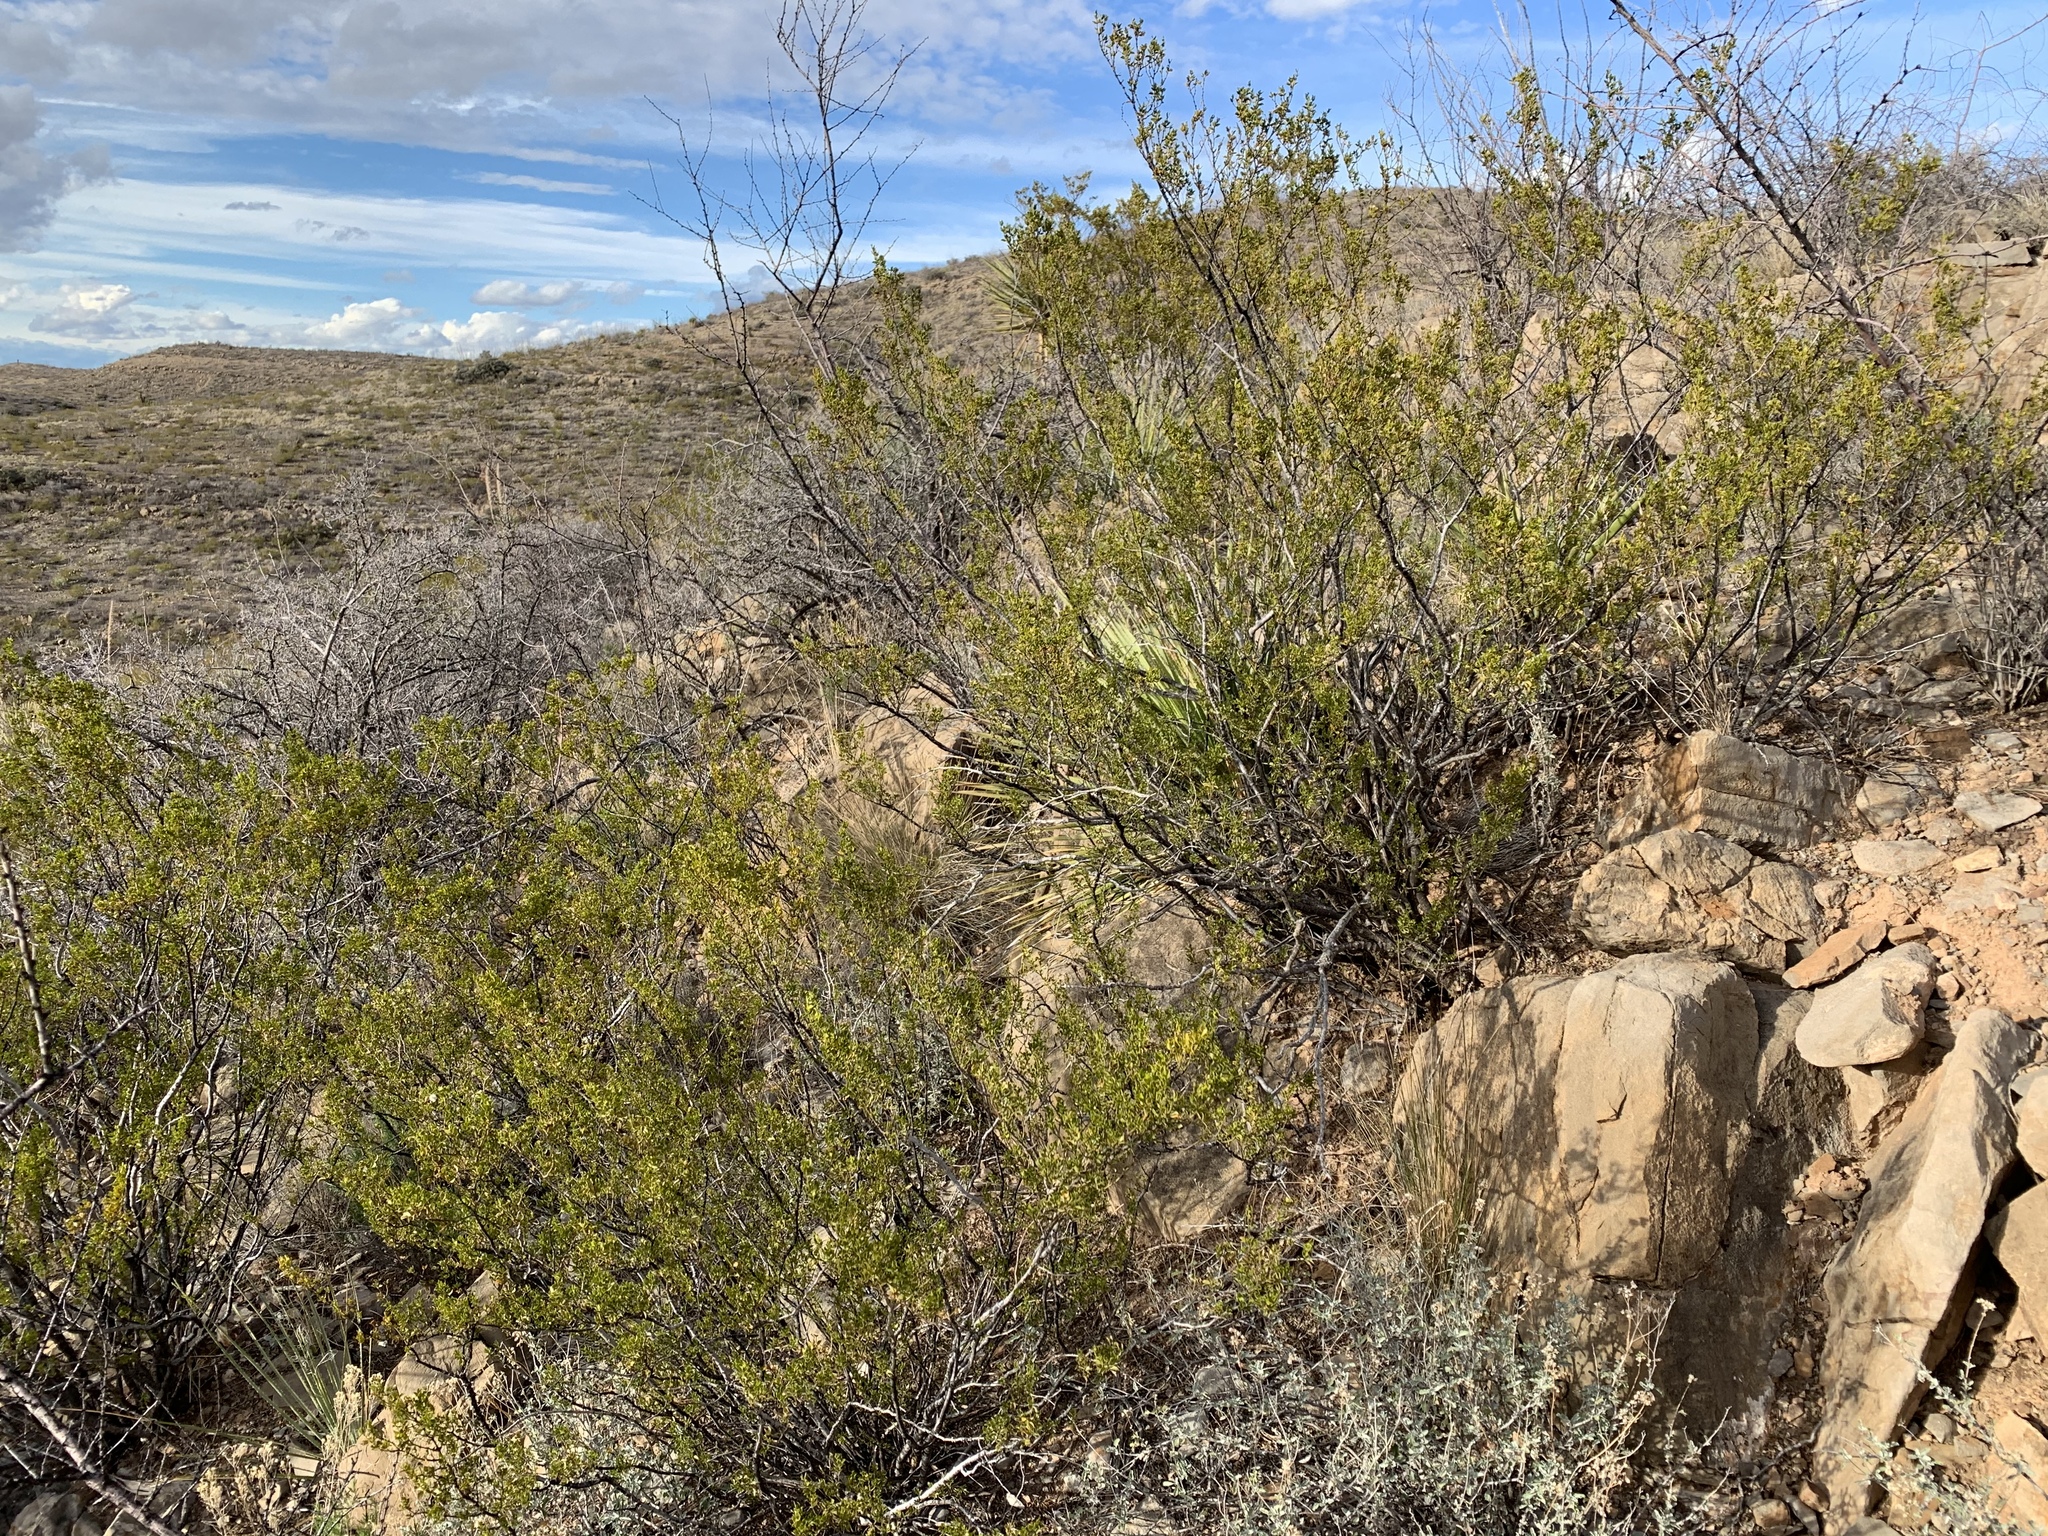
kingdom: Plantae
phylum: Tracheophyta
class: Magnoliopsida
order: Zygophyllales
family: Zygophyllaceae
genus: Larrea
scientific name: Larrea tridentata
